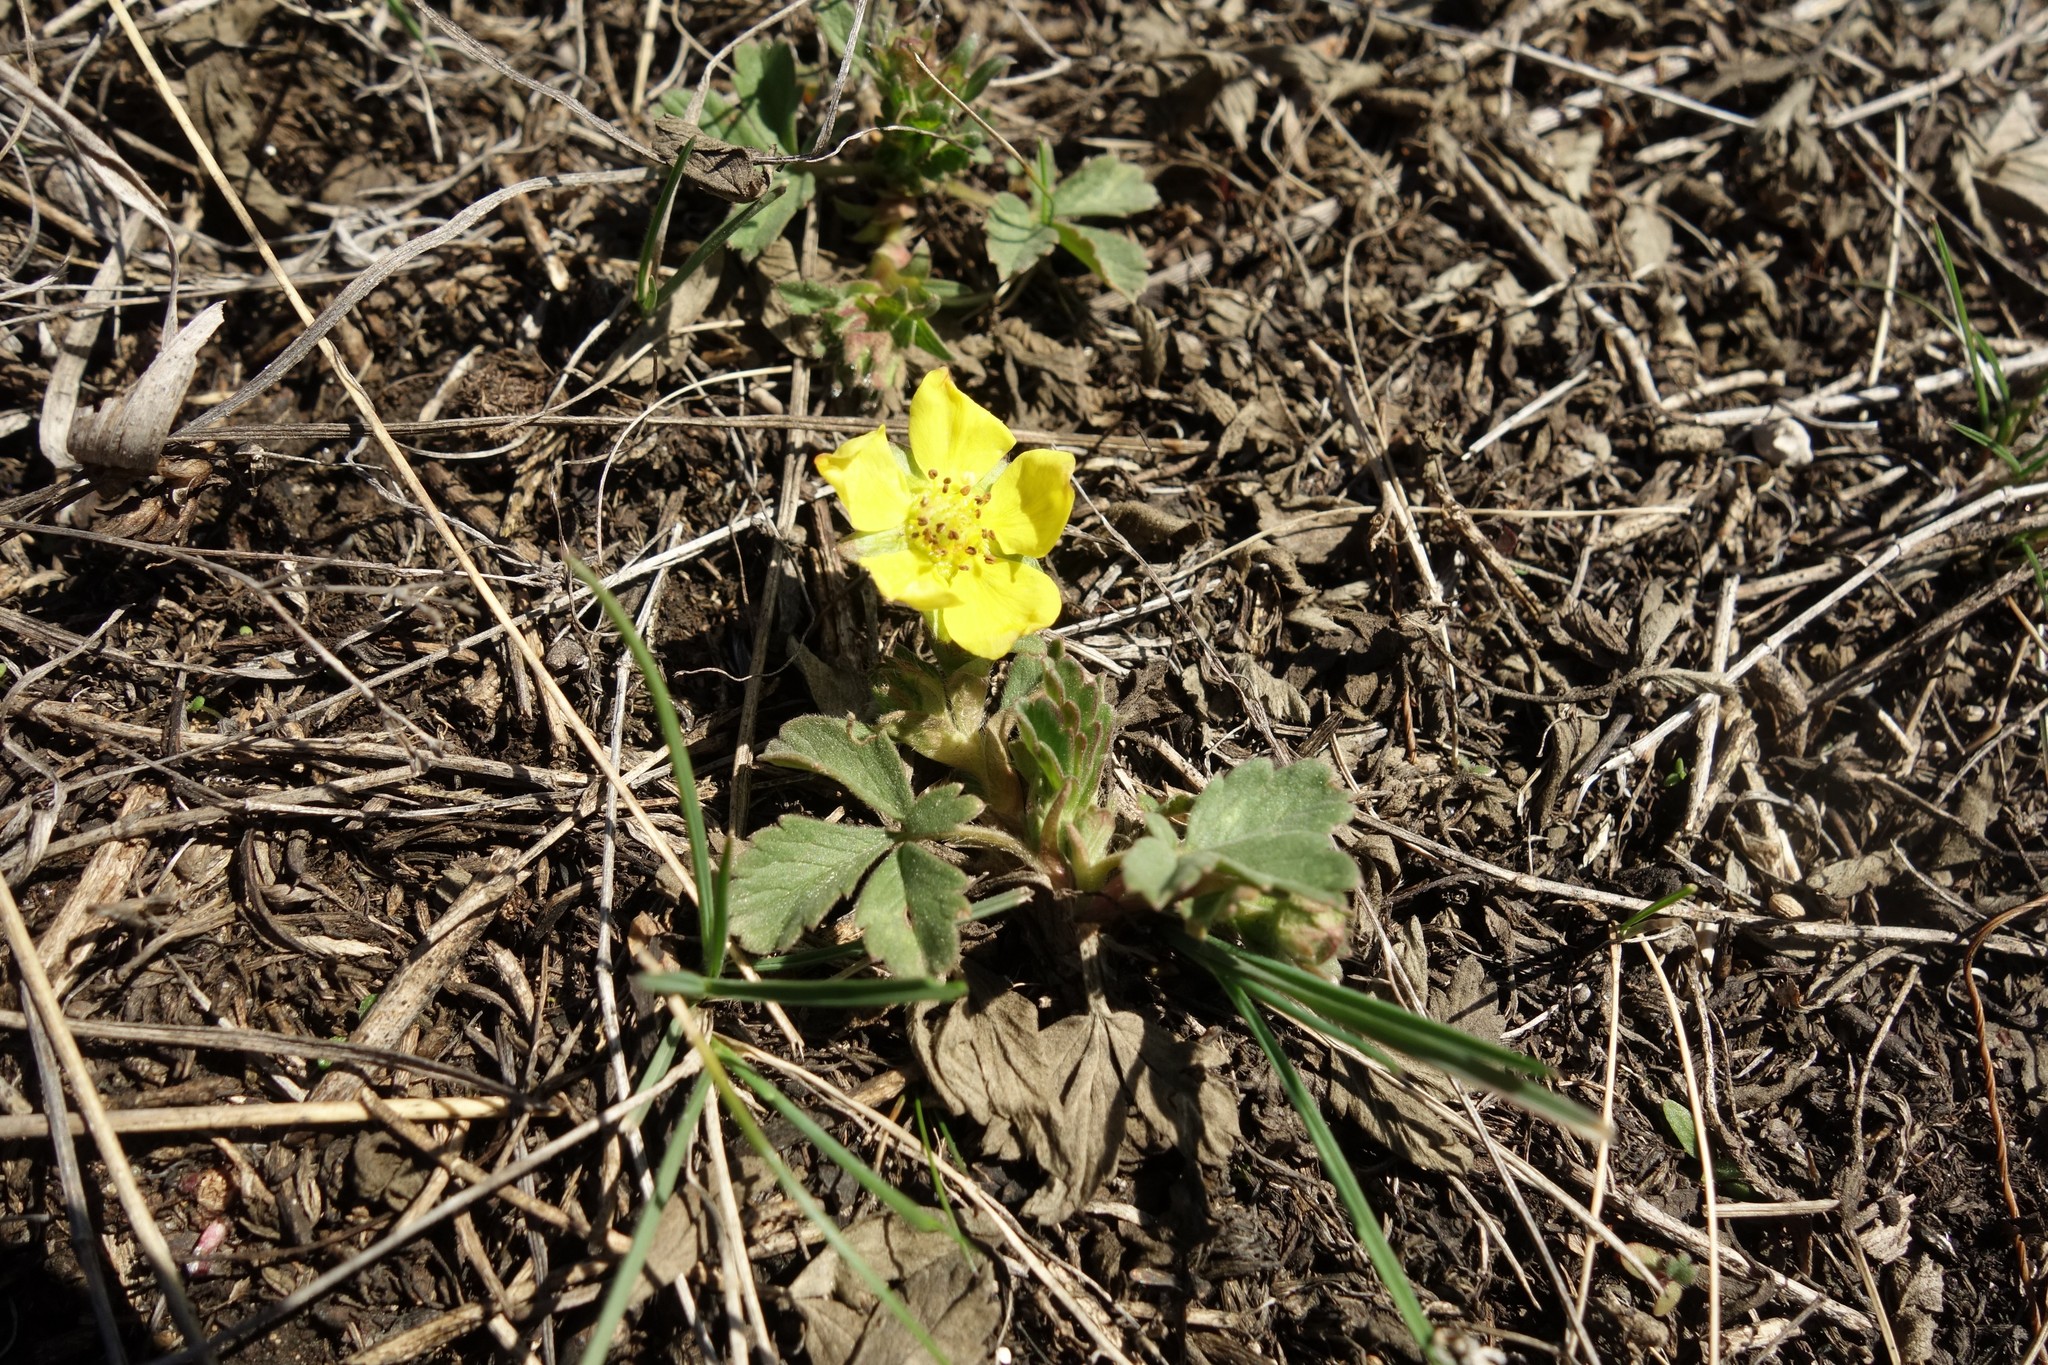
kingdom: Plantae
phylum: Tracheophyta
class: Magnoliopsida
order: Rosales
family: Rosaceae
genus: Potentilla
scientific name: Potentilla incana
